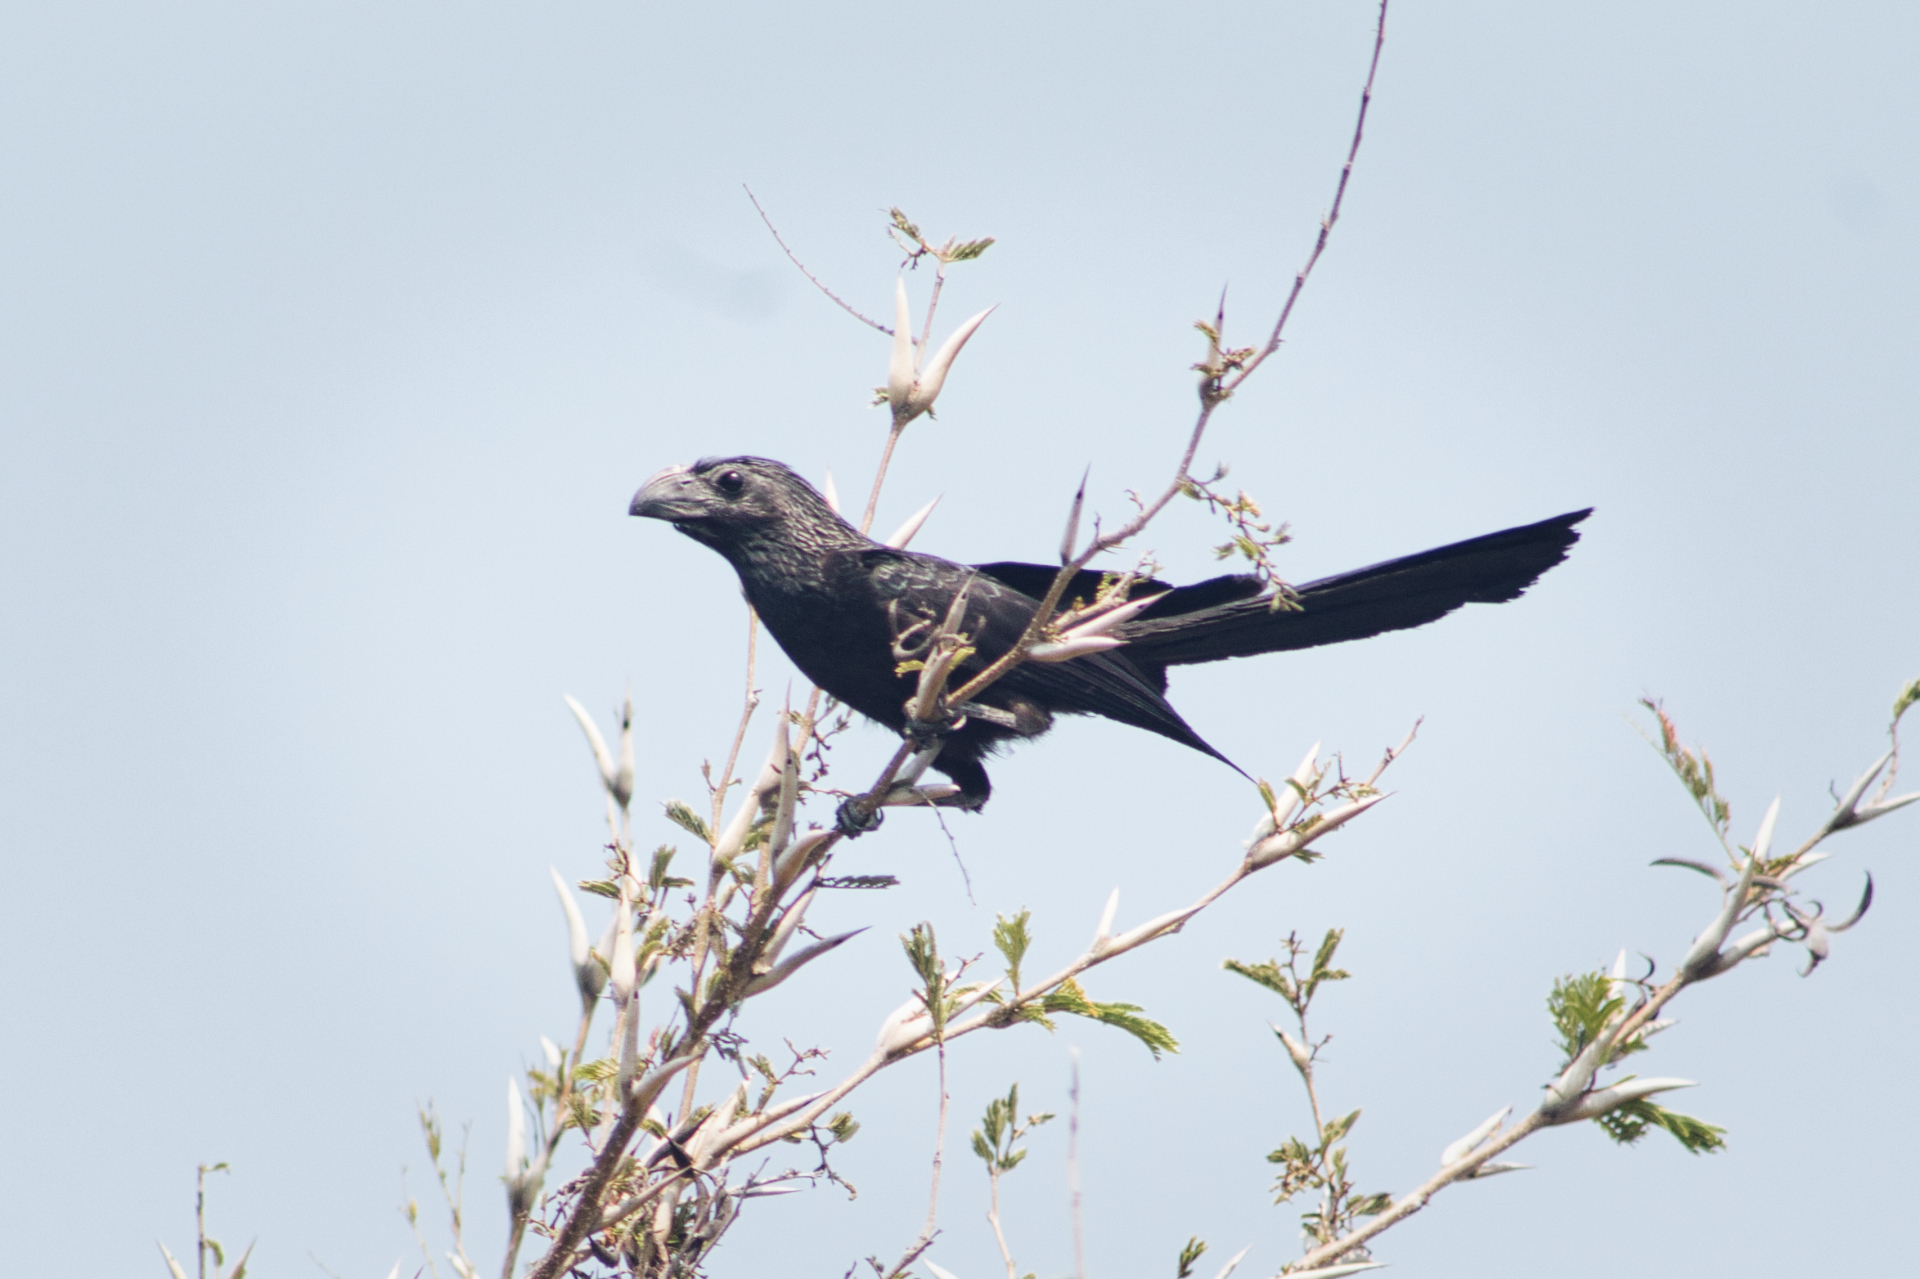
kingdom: Animalia
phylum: Chordata
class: Aves
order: Cuculiformes
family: Cuculidae
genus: Crotophaga
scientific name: Crotophaga sulcirostris
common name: Groove-billed ani
